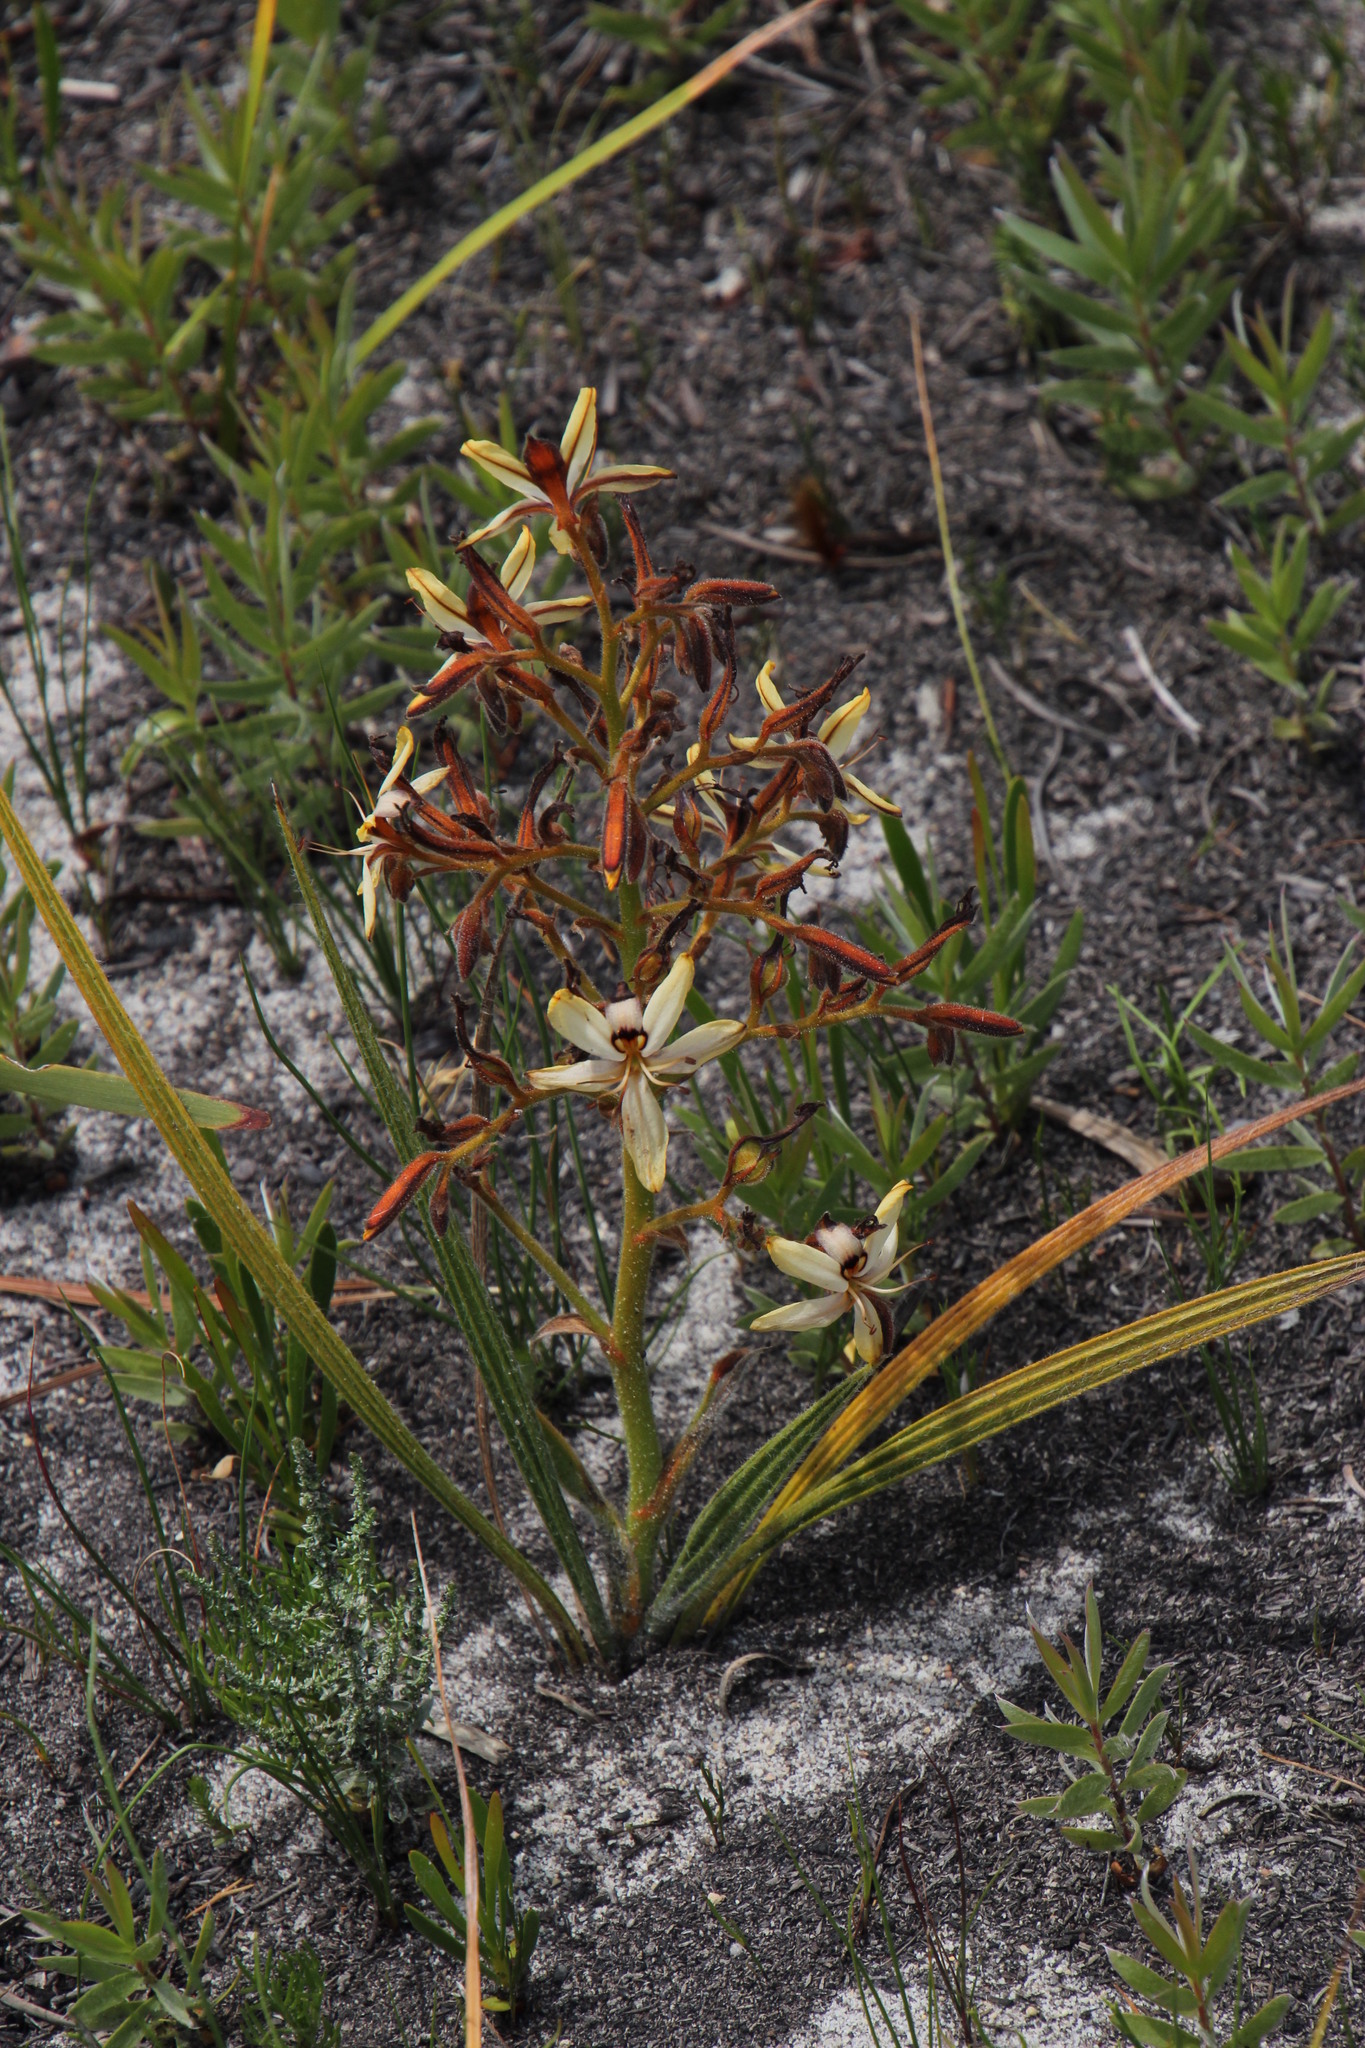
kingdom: Plantae
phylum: Tracheophyta
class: Liliopsida
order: Commelinales
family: Haemodoraceae
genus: Wachendorfia
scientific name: Wachendorfia paniculata
